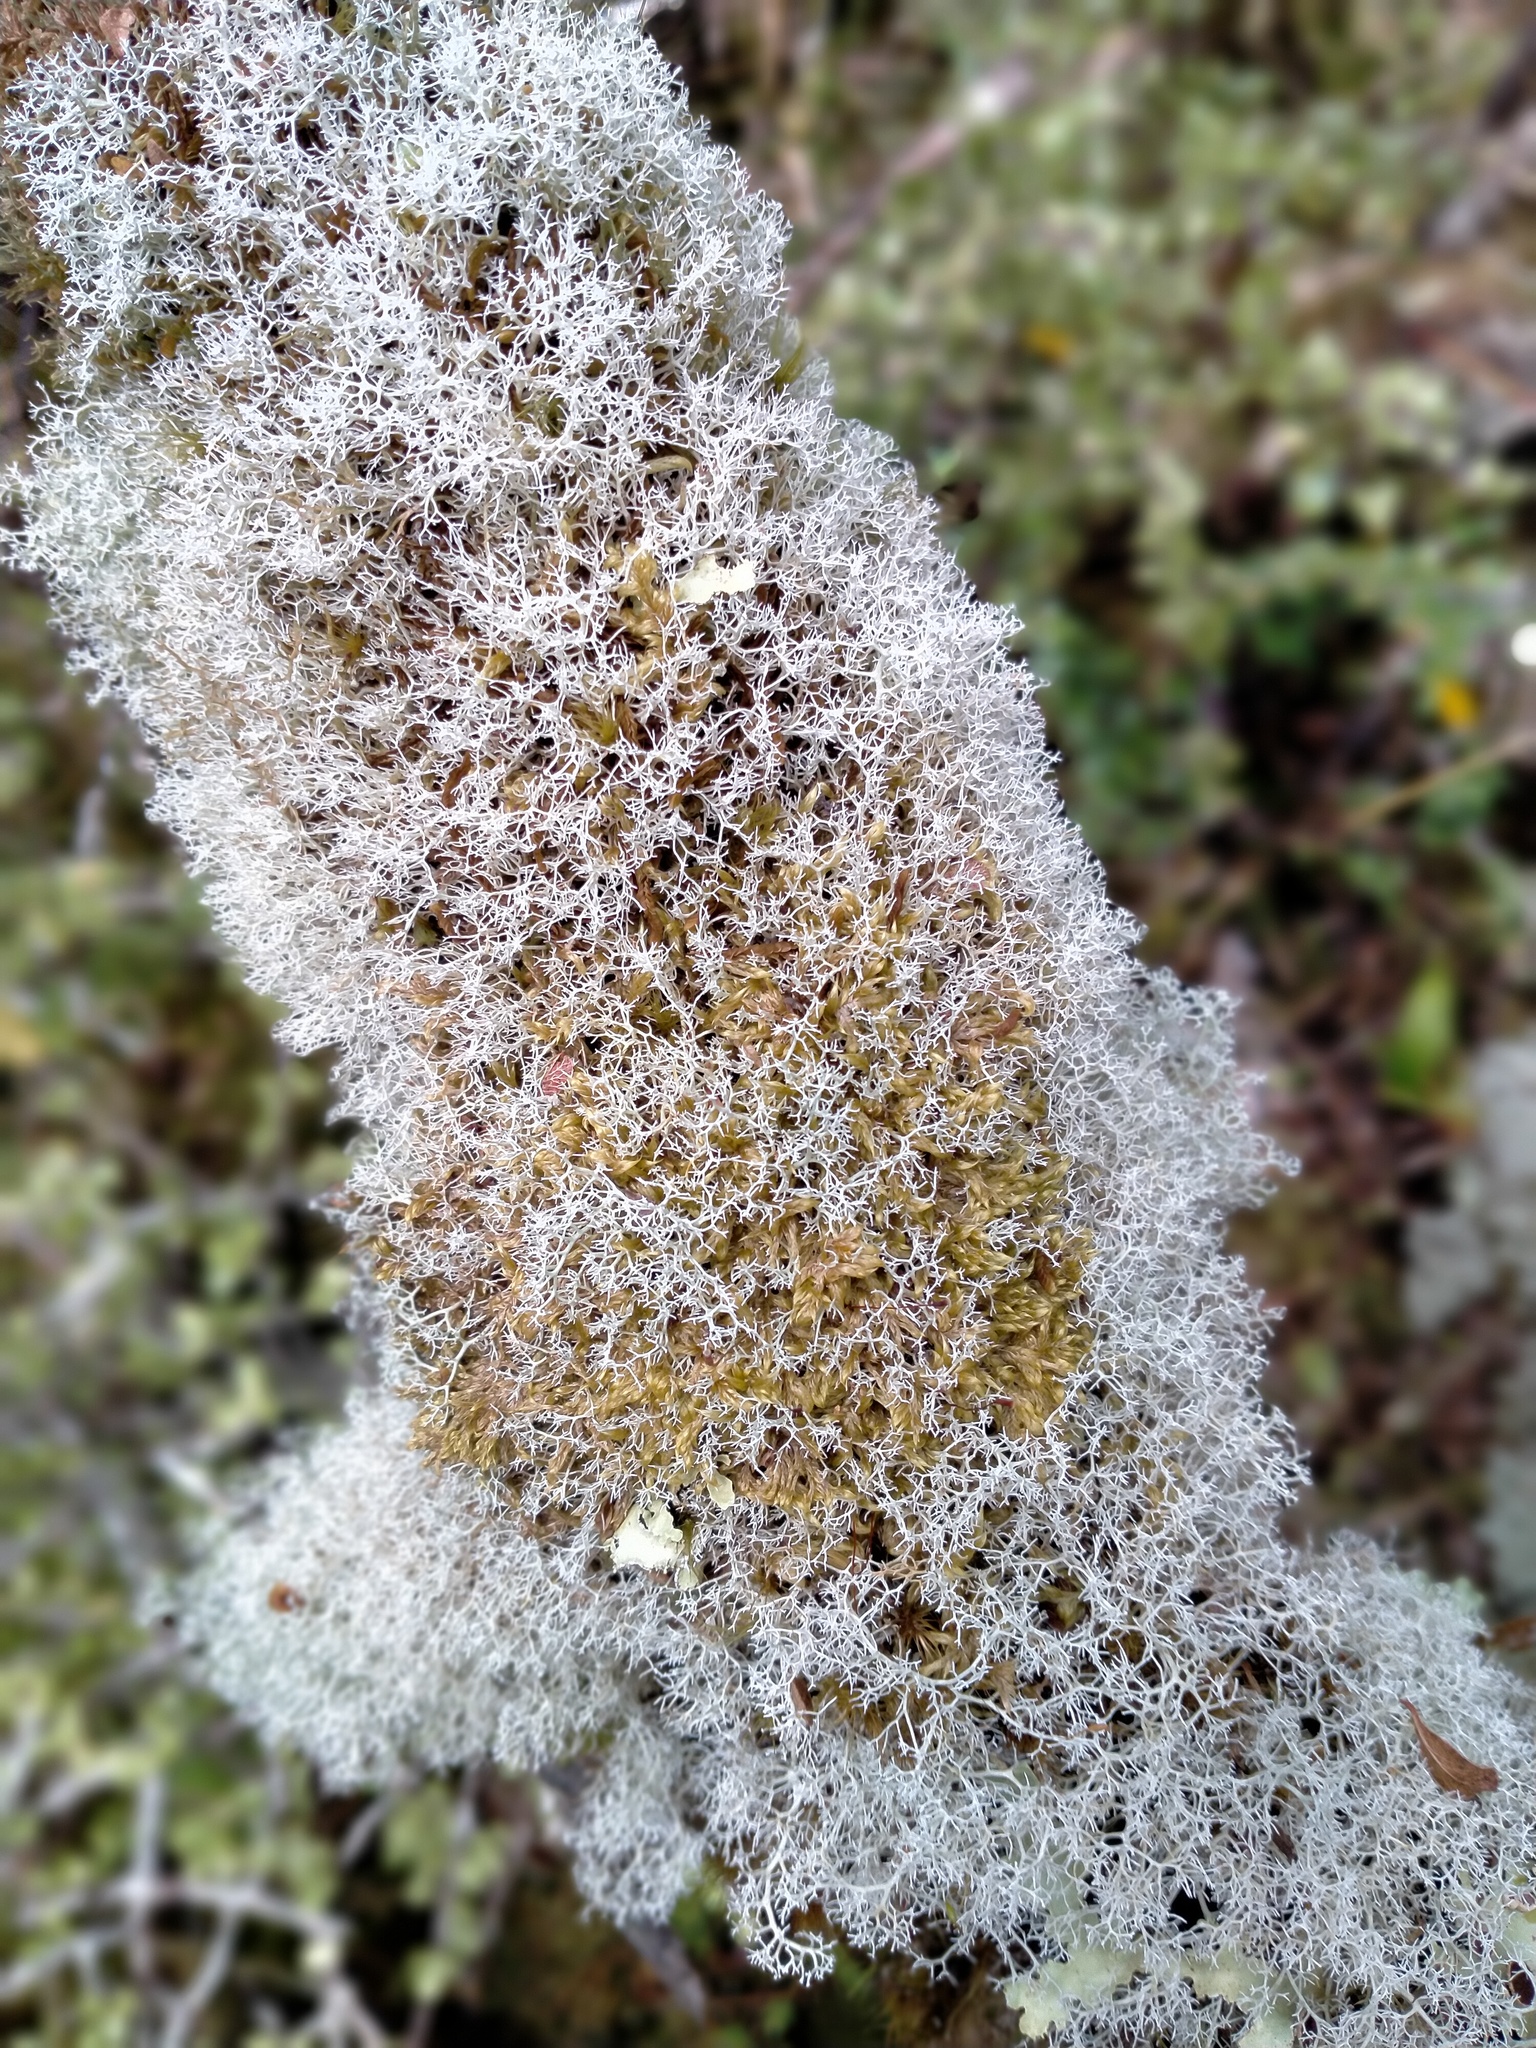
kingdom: Fungi
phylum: Ascomycota
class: Lecanoromycetes
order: Lecanorales
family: Sphaerophoraceae
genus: Leifidium
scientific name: Leifidium tenerum
